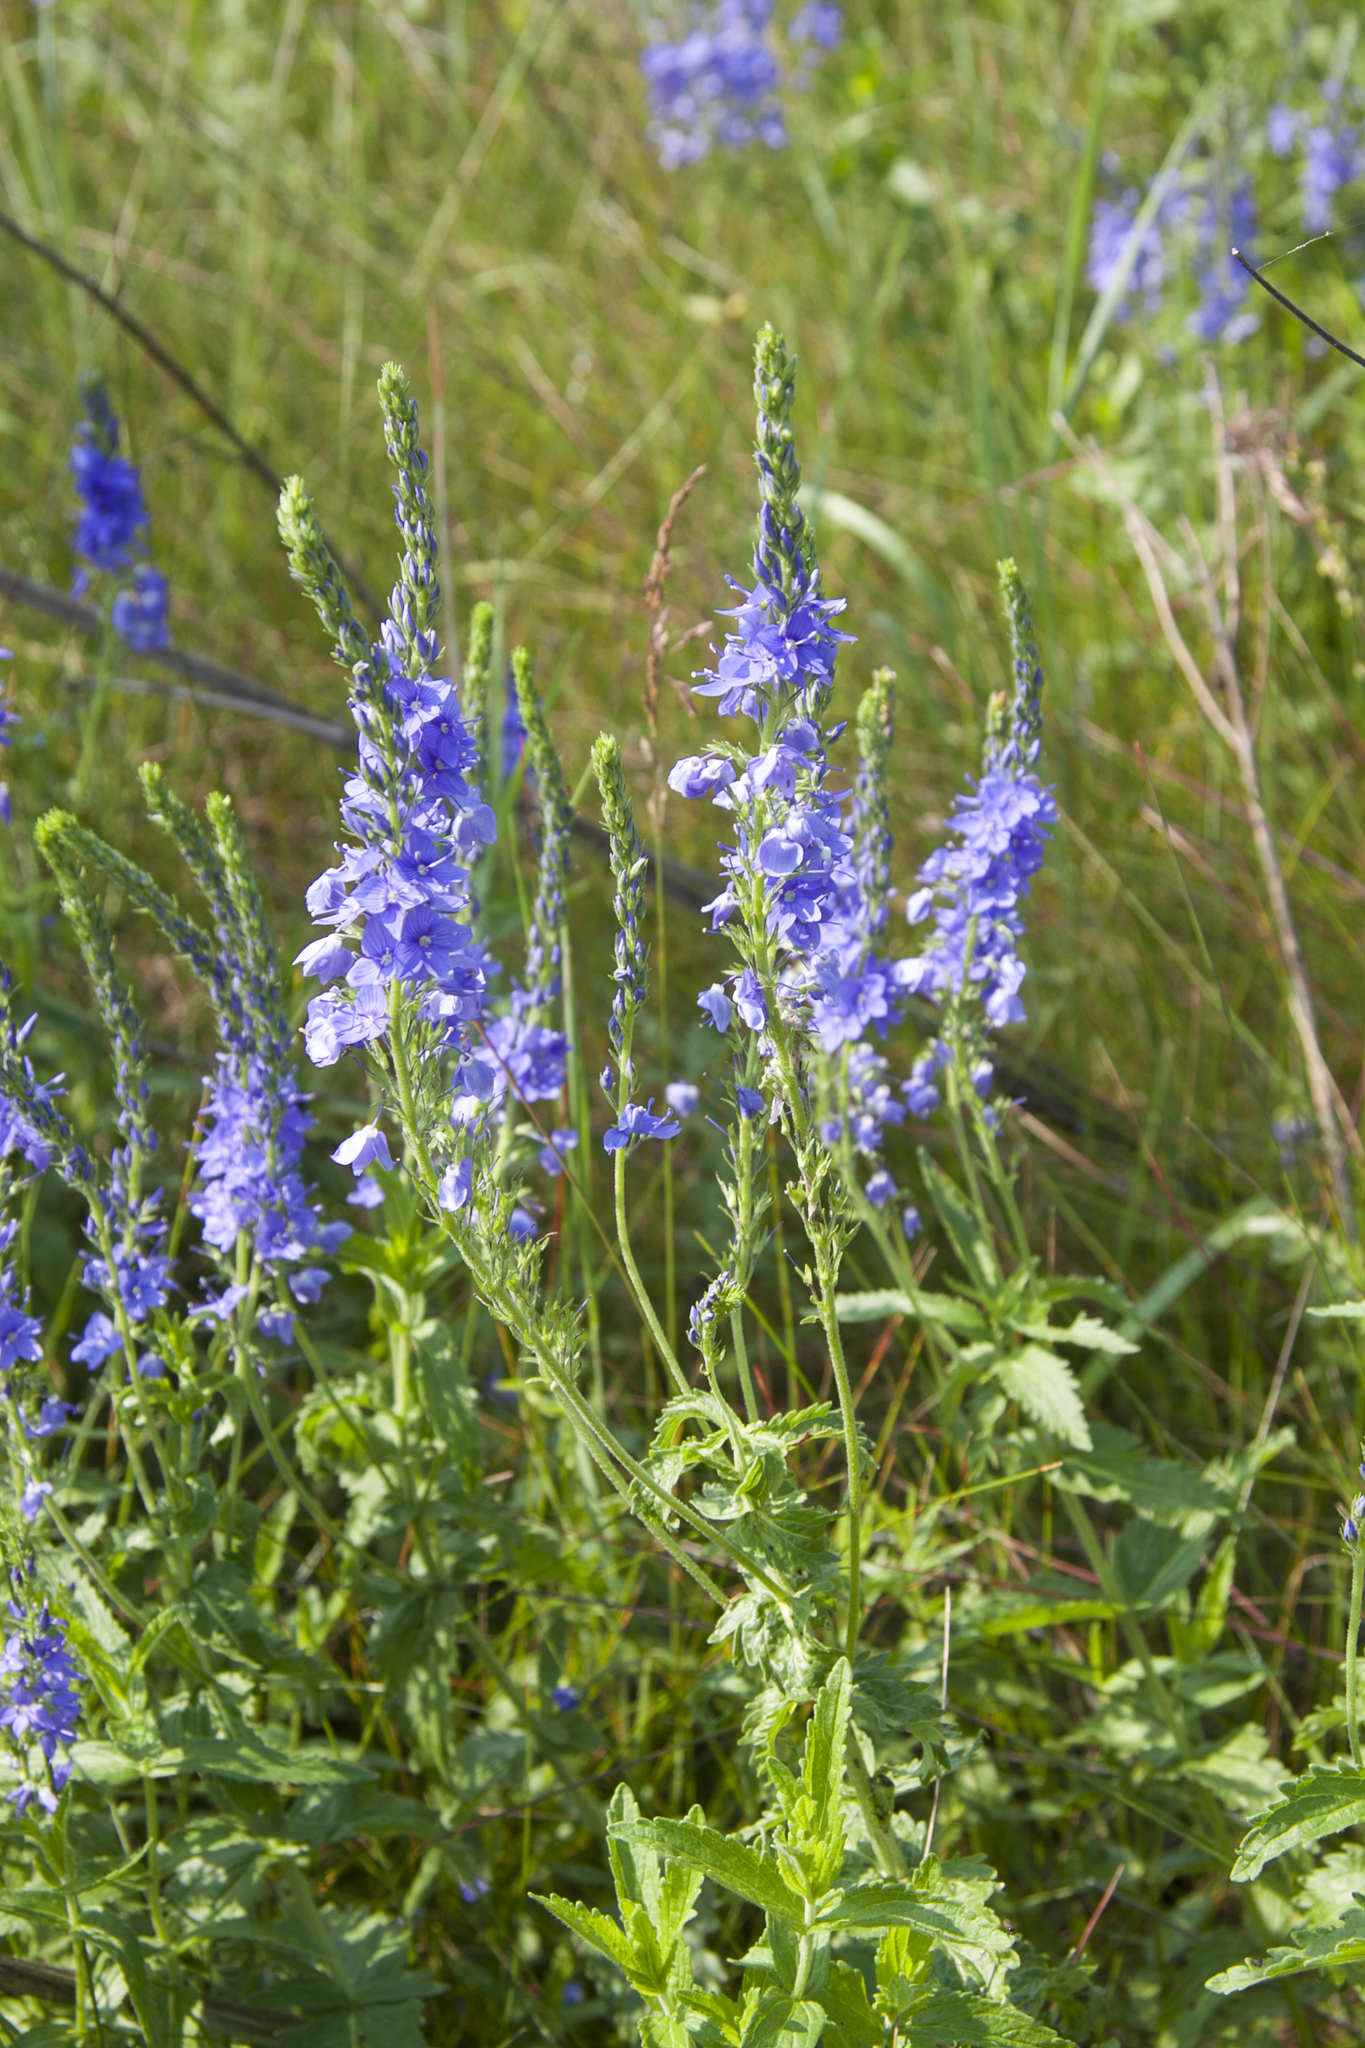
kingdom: Plantae
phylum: Tracheophyta
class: Magnoliopsida
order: Lamiales
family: Plantaginaceae
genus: Veronica
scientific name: Veronica teucrium
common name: Large speedwell
